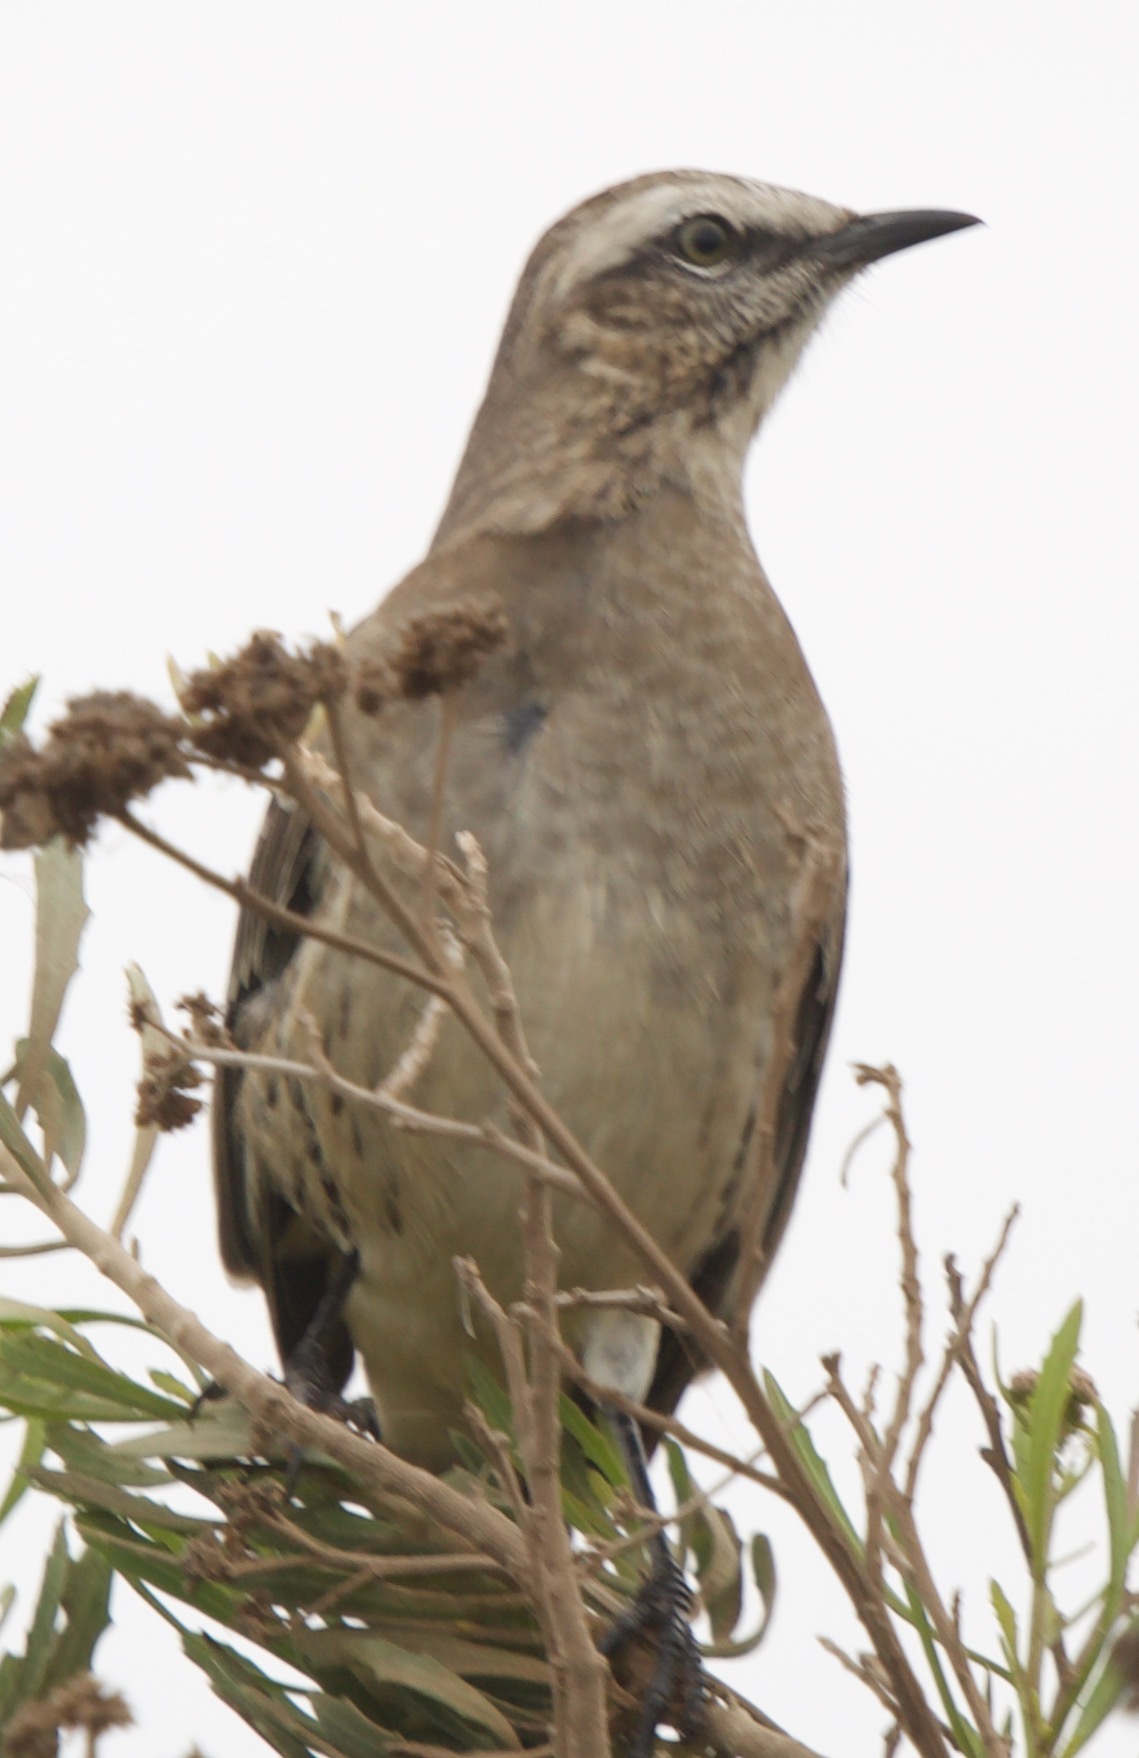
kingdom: Animalia
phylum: Chordata
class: Aves
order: Passeriformes
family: Mimidae
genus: Mimus
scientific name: Mimus thenca
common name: Chilean mockingbird
